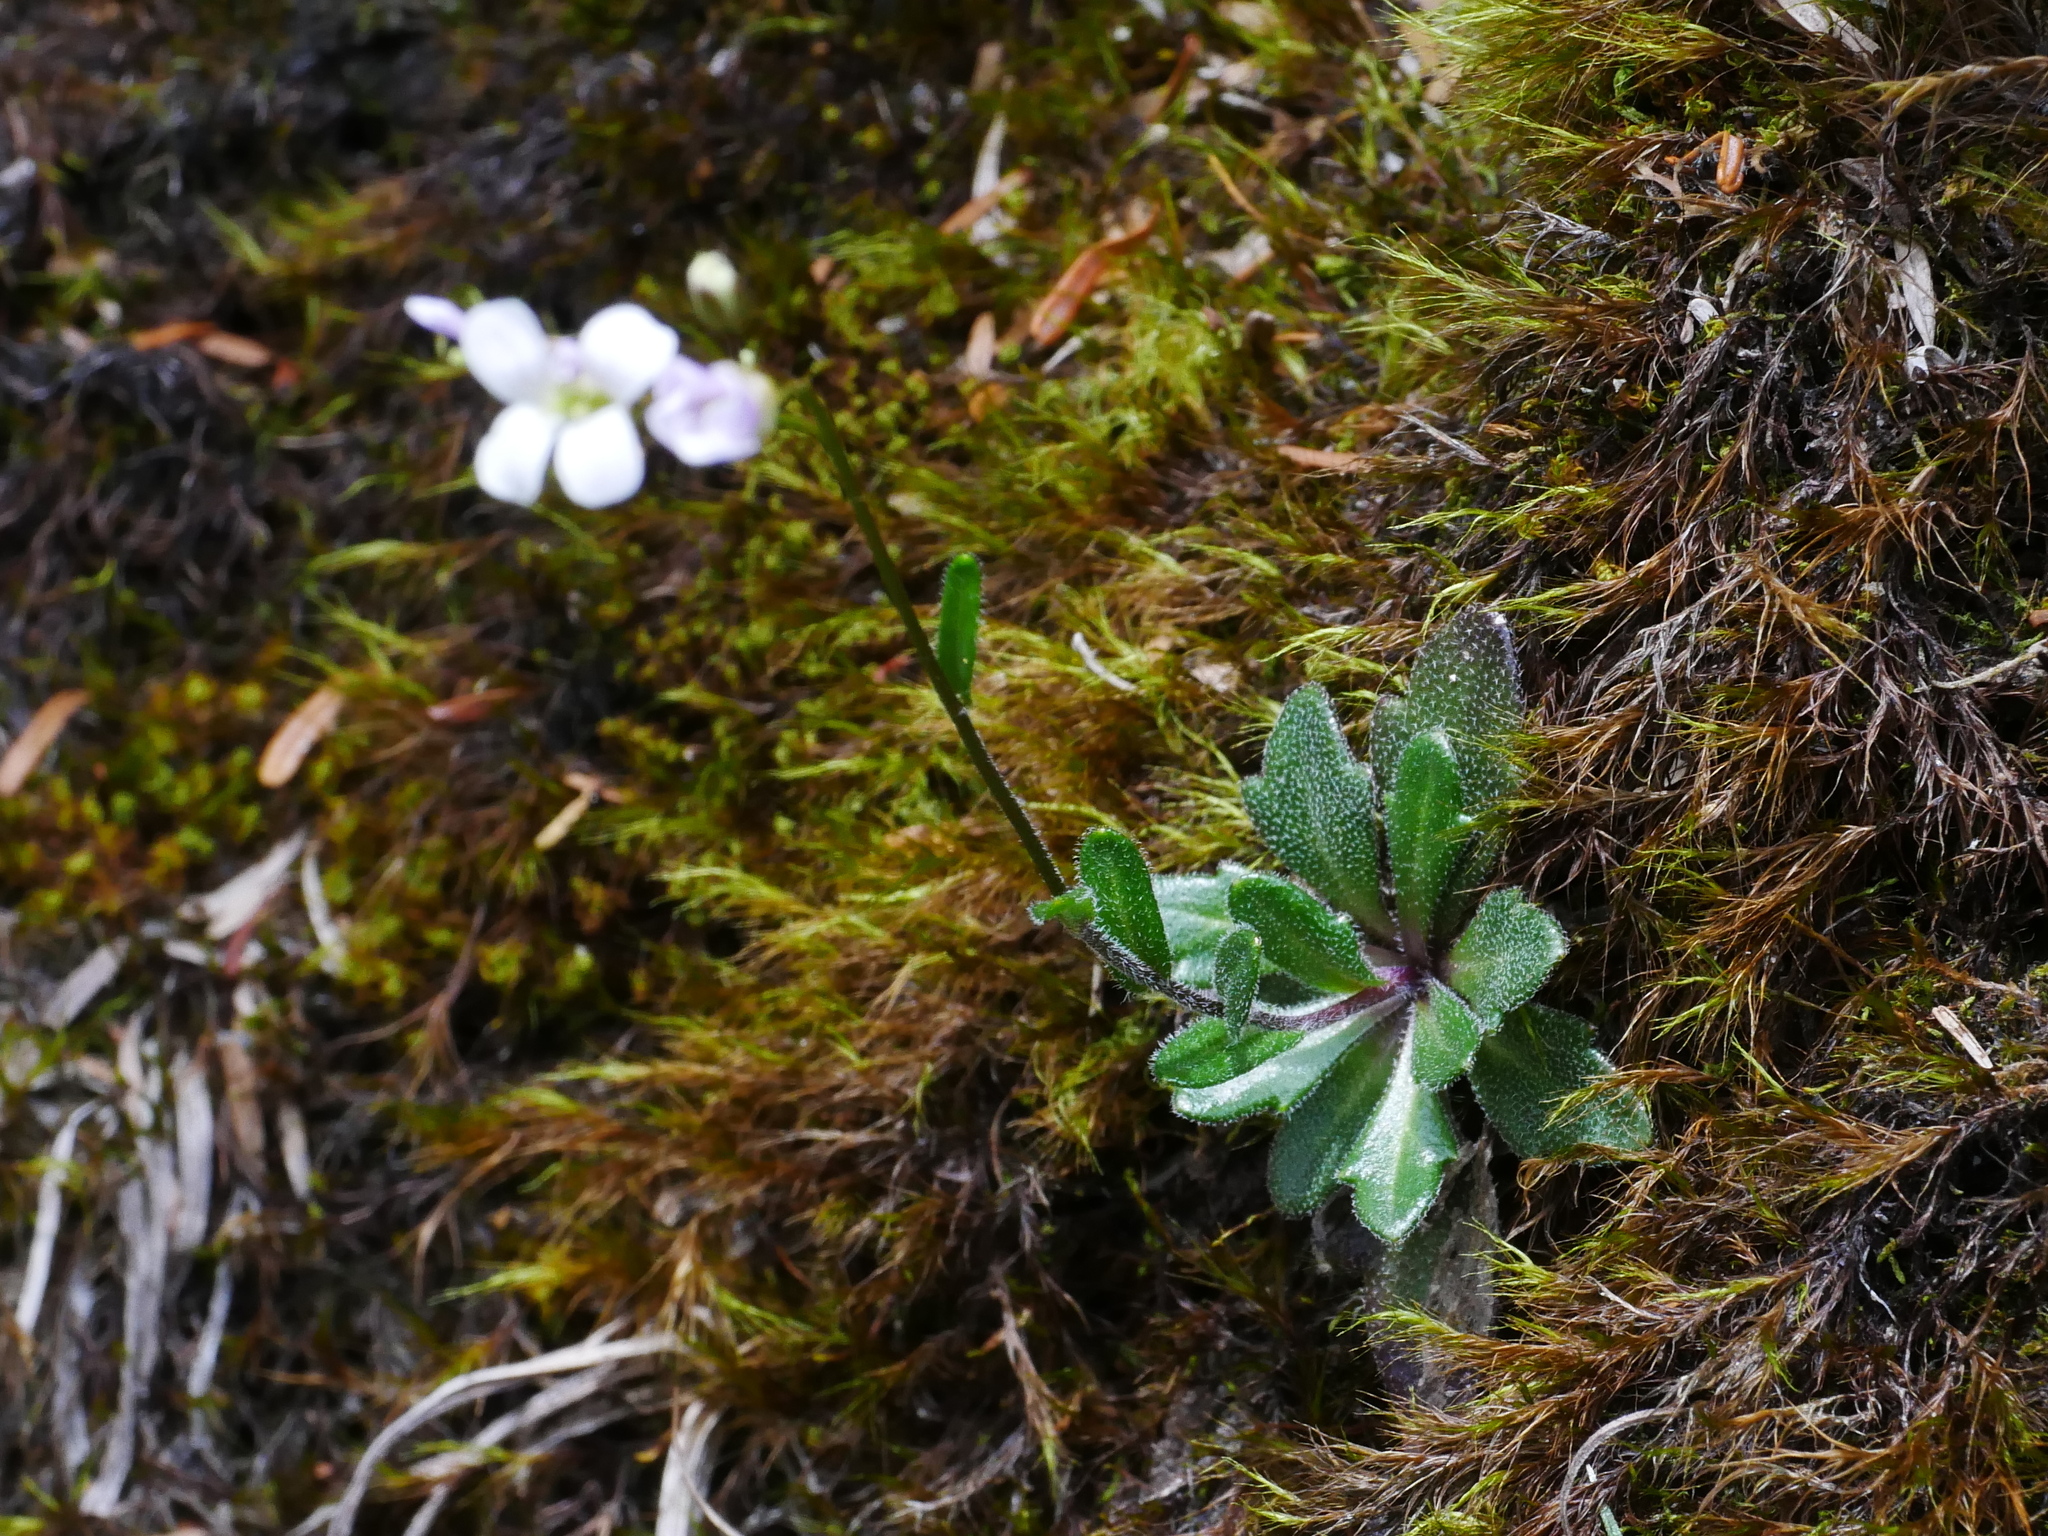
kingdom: Plantae
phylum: Tracheophyta
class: Magnoliopsida
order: Brassicales
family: Brassicaceae
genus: Arabis
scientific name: Arabis serrata
